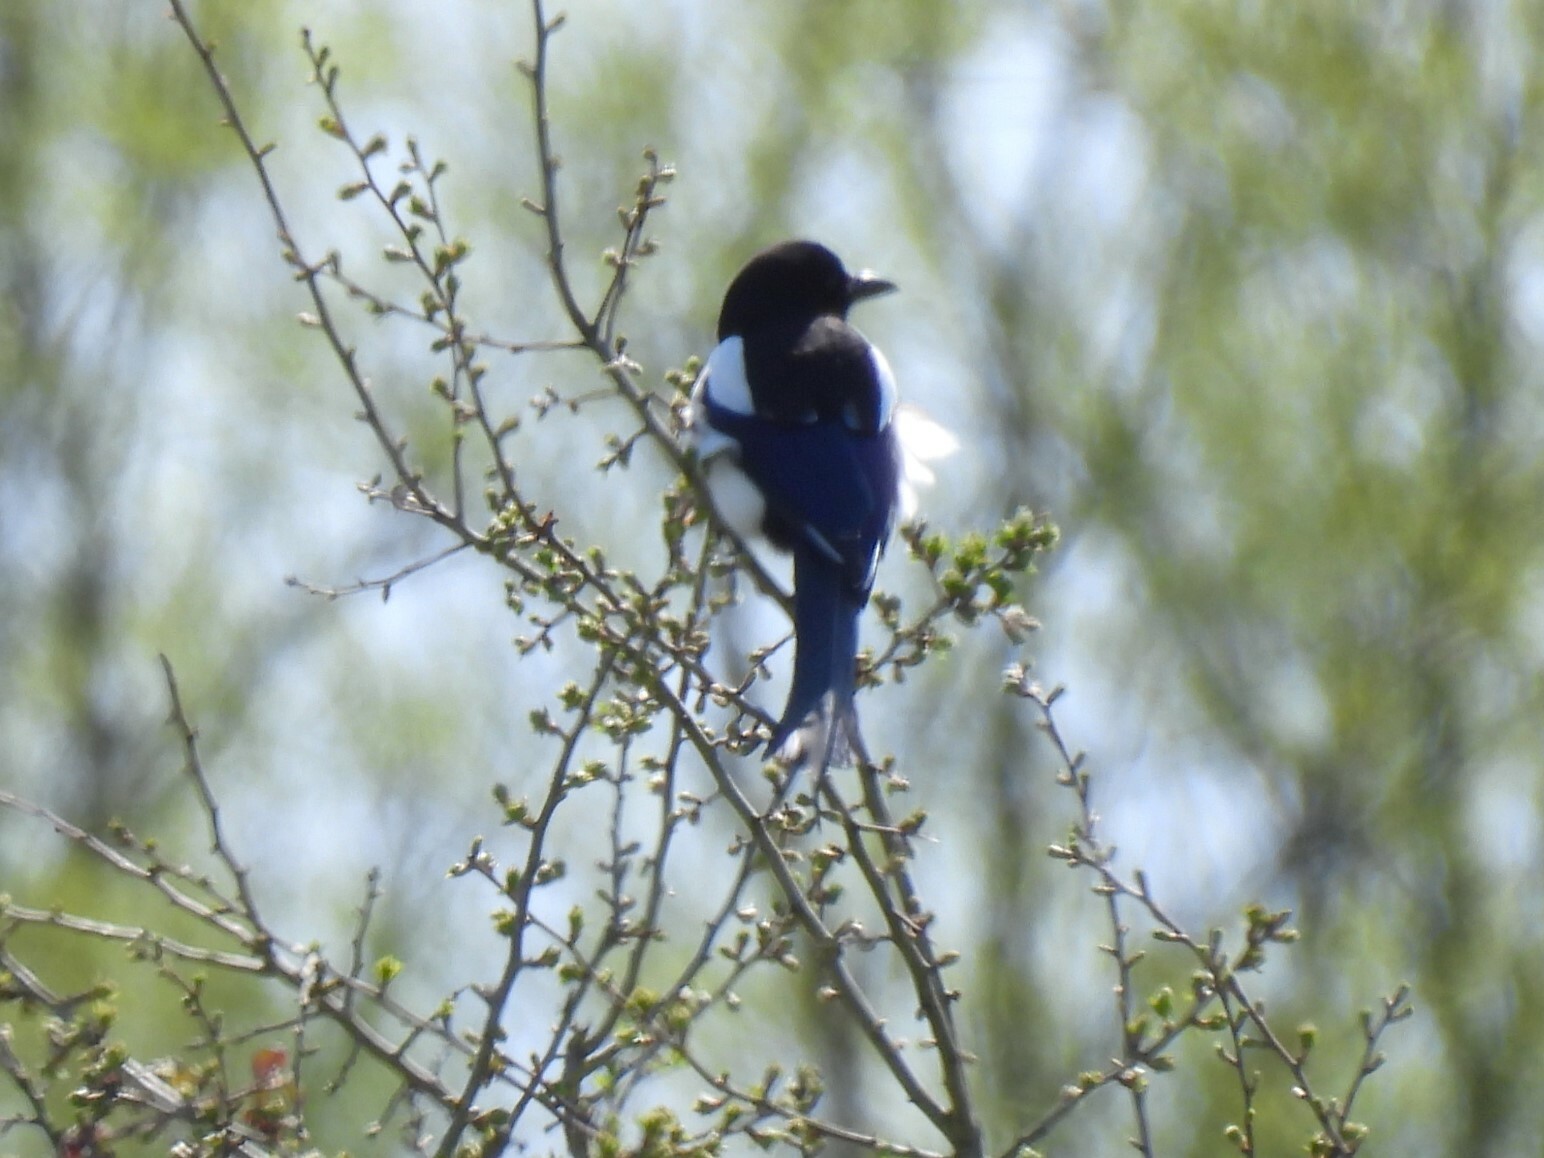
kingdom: Animalia
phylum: Chordata
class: Aves
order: Passeriformes
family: Corvidae
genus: Pica
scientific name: Pica pica
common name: Eurasian magpie
